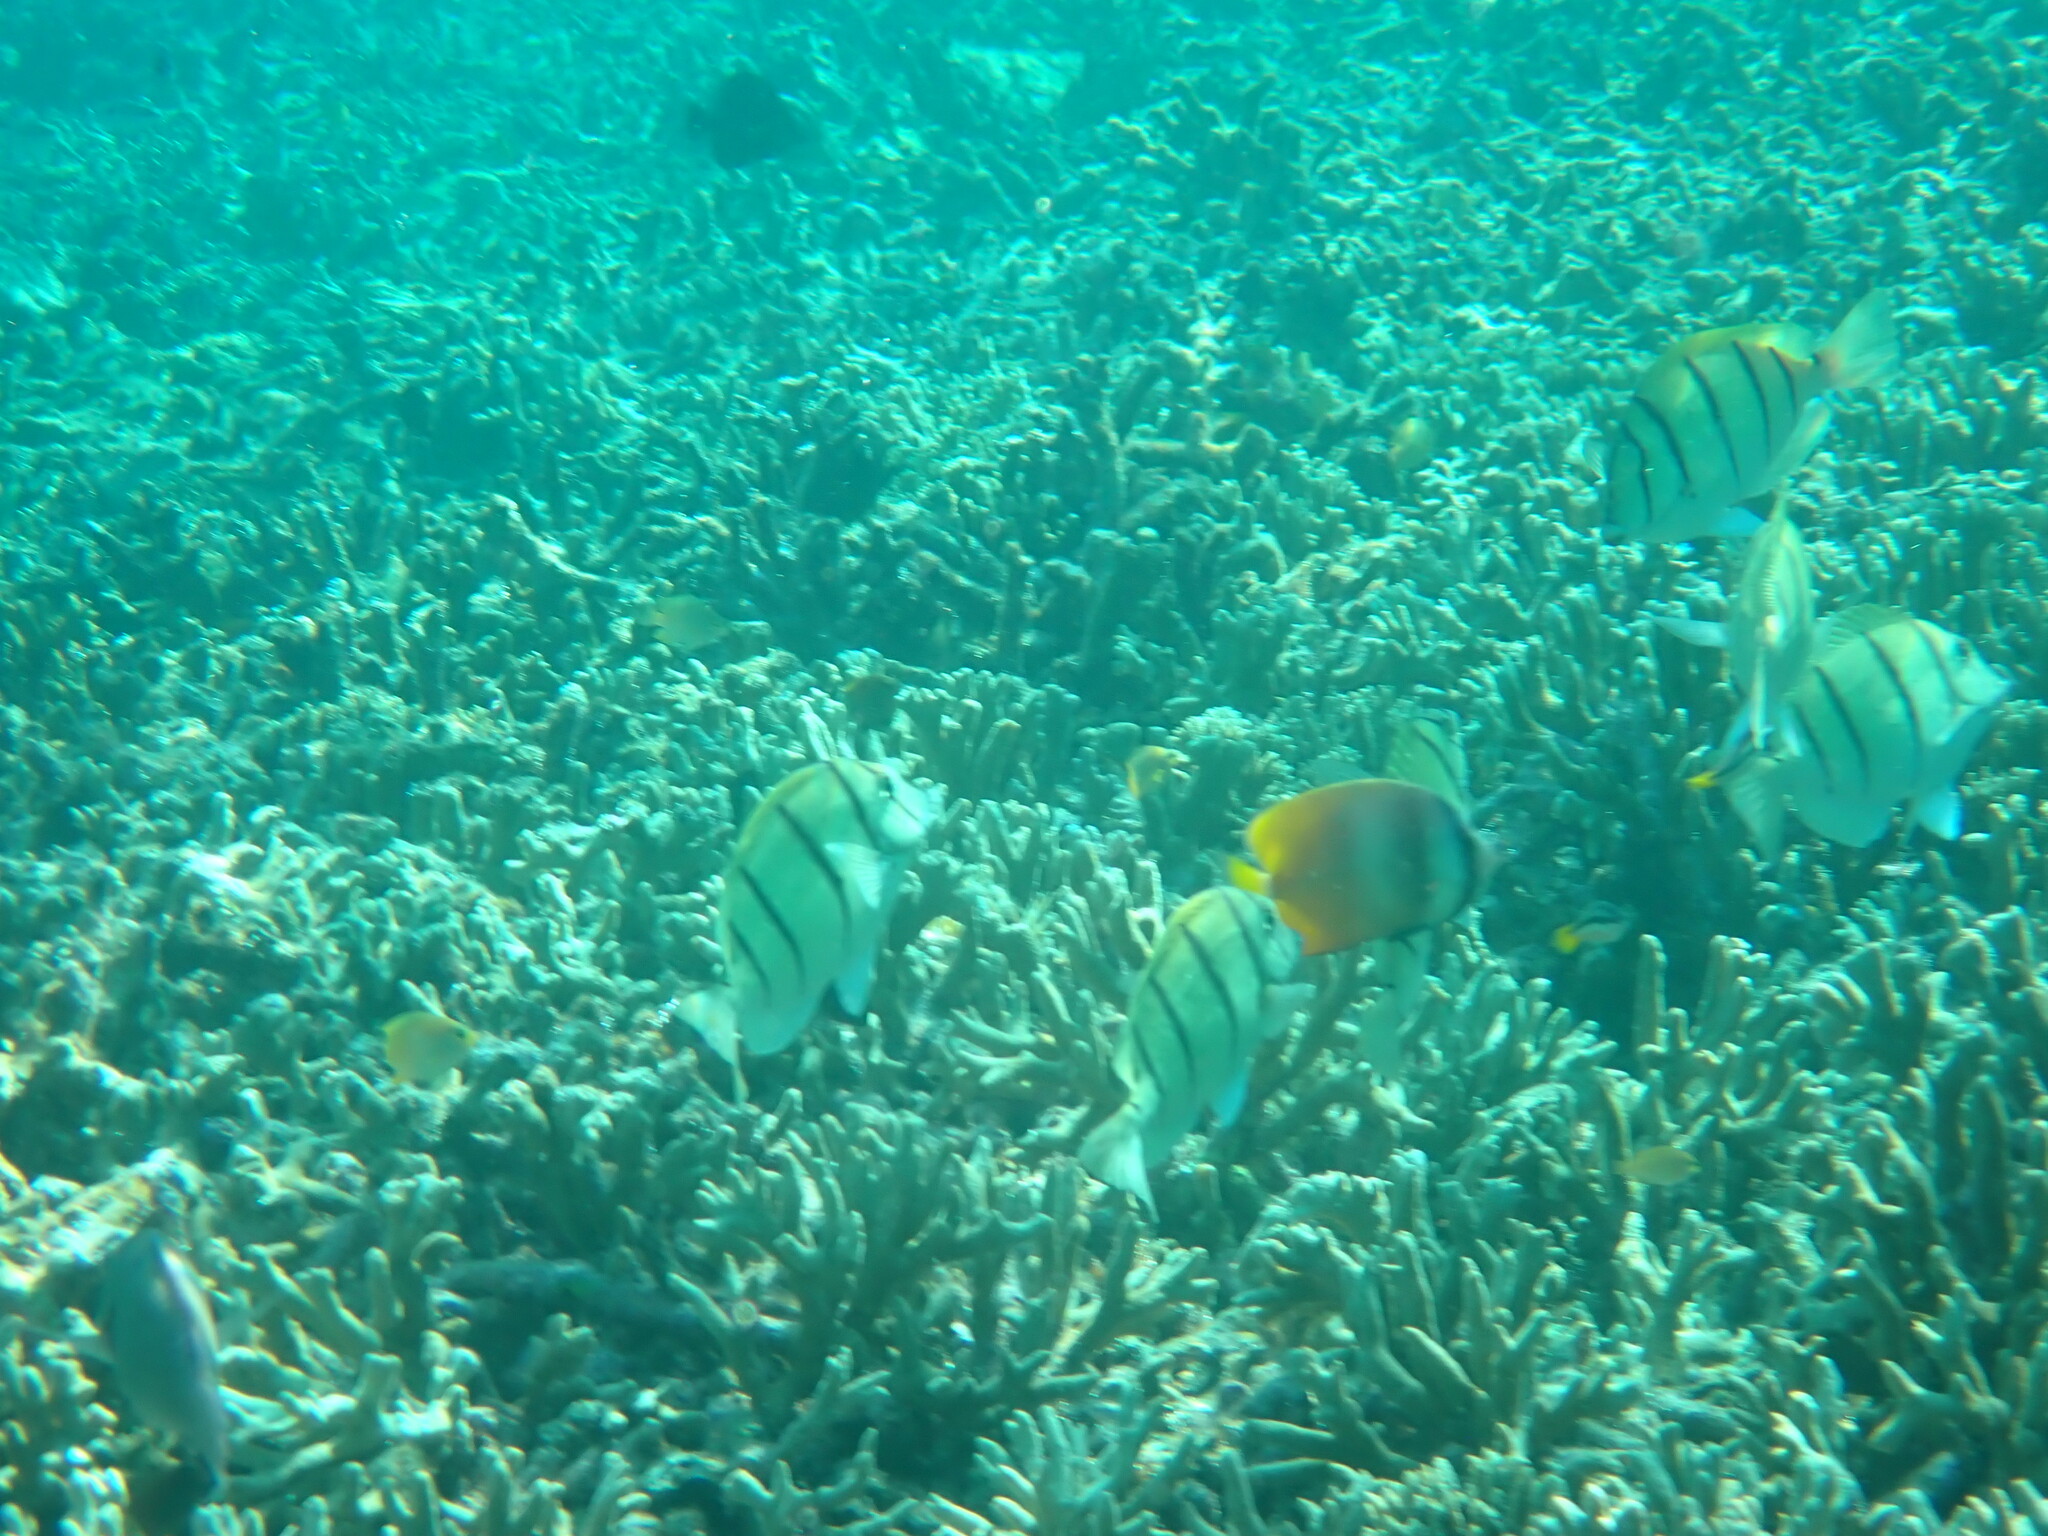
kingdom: Animalia
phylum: Chordata
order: Perciformes
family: Acanthuridae
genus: Acanthurus
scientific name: Acanthurus triostegus
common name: Convict surgeonfish
